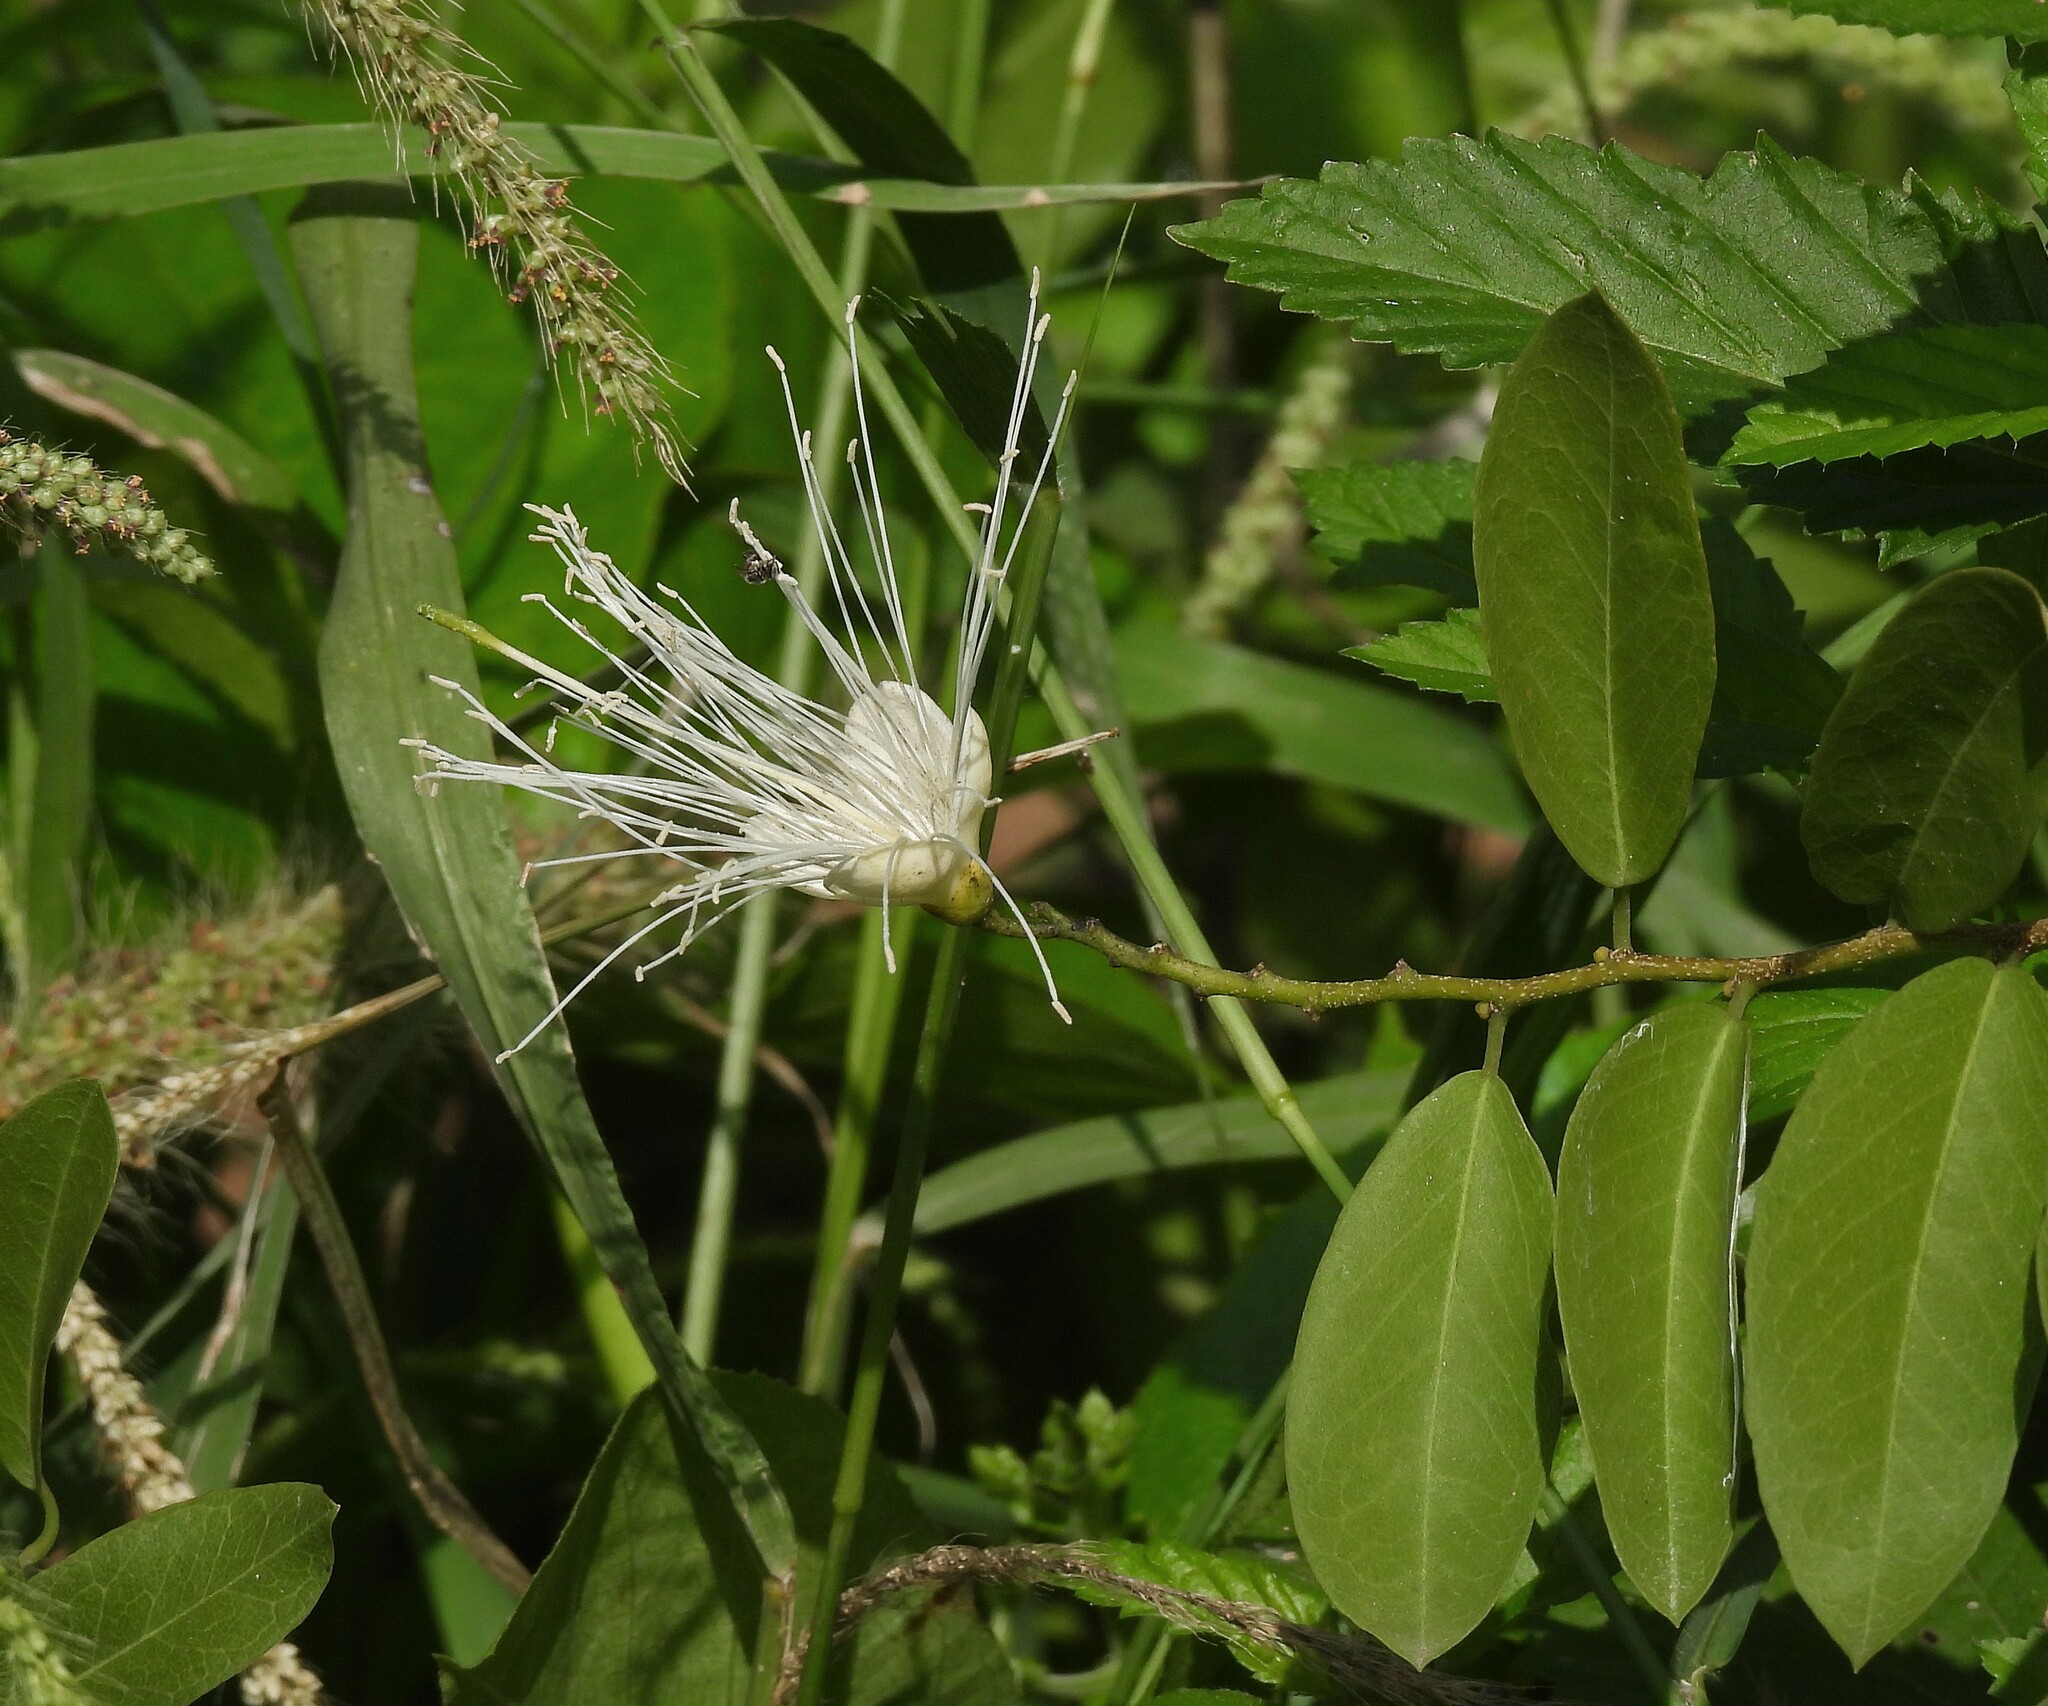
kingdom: Plantae
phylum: Tracheophyta
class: Magnoliopsida
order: Brassicales
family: Capparaceae
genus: Cynophalla
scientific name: Cynophalla retusa
